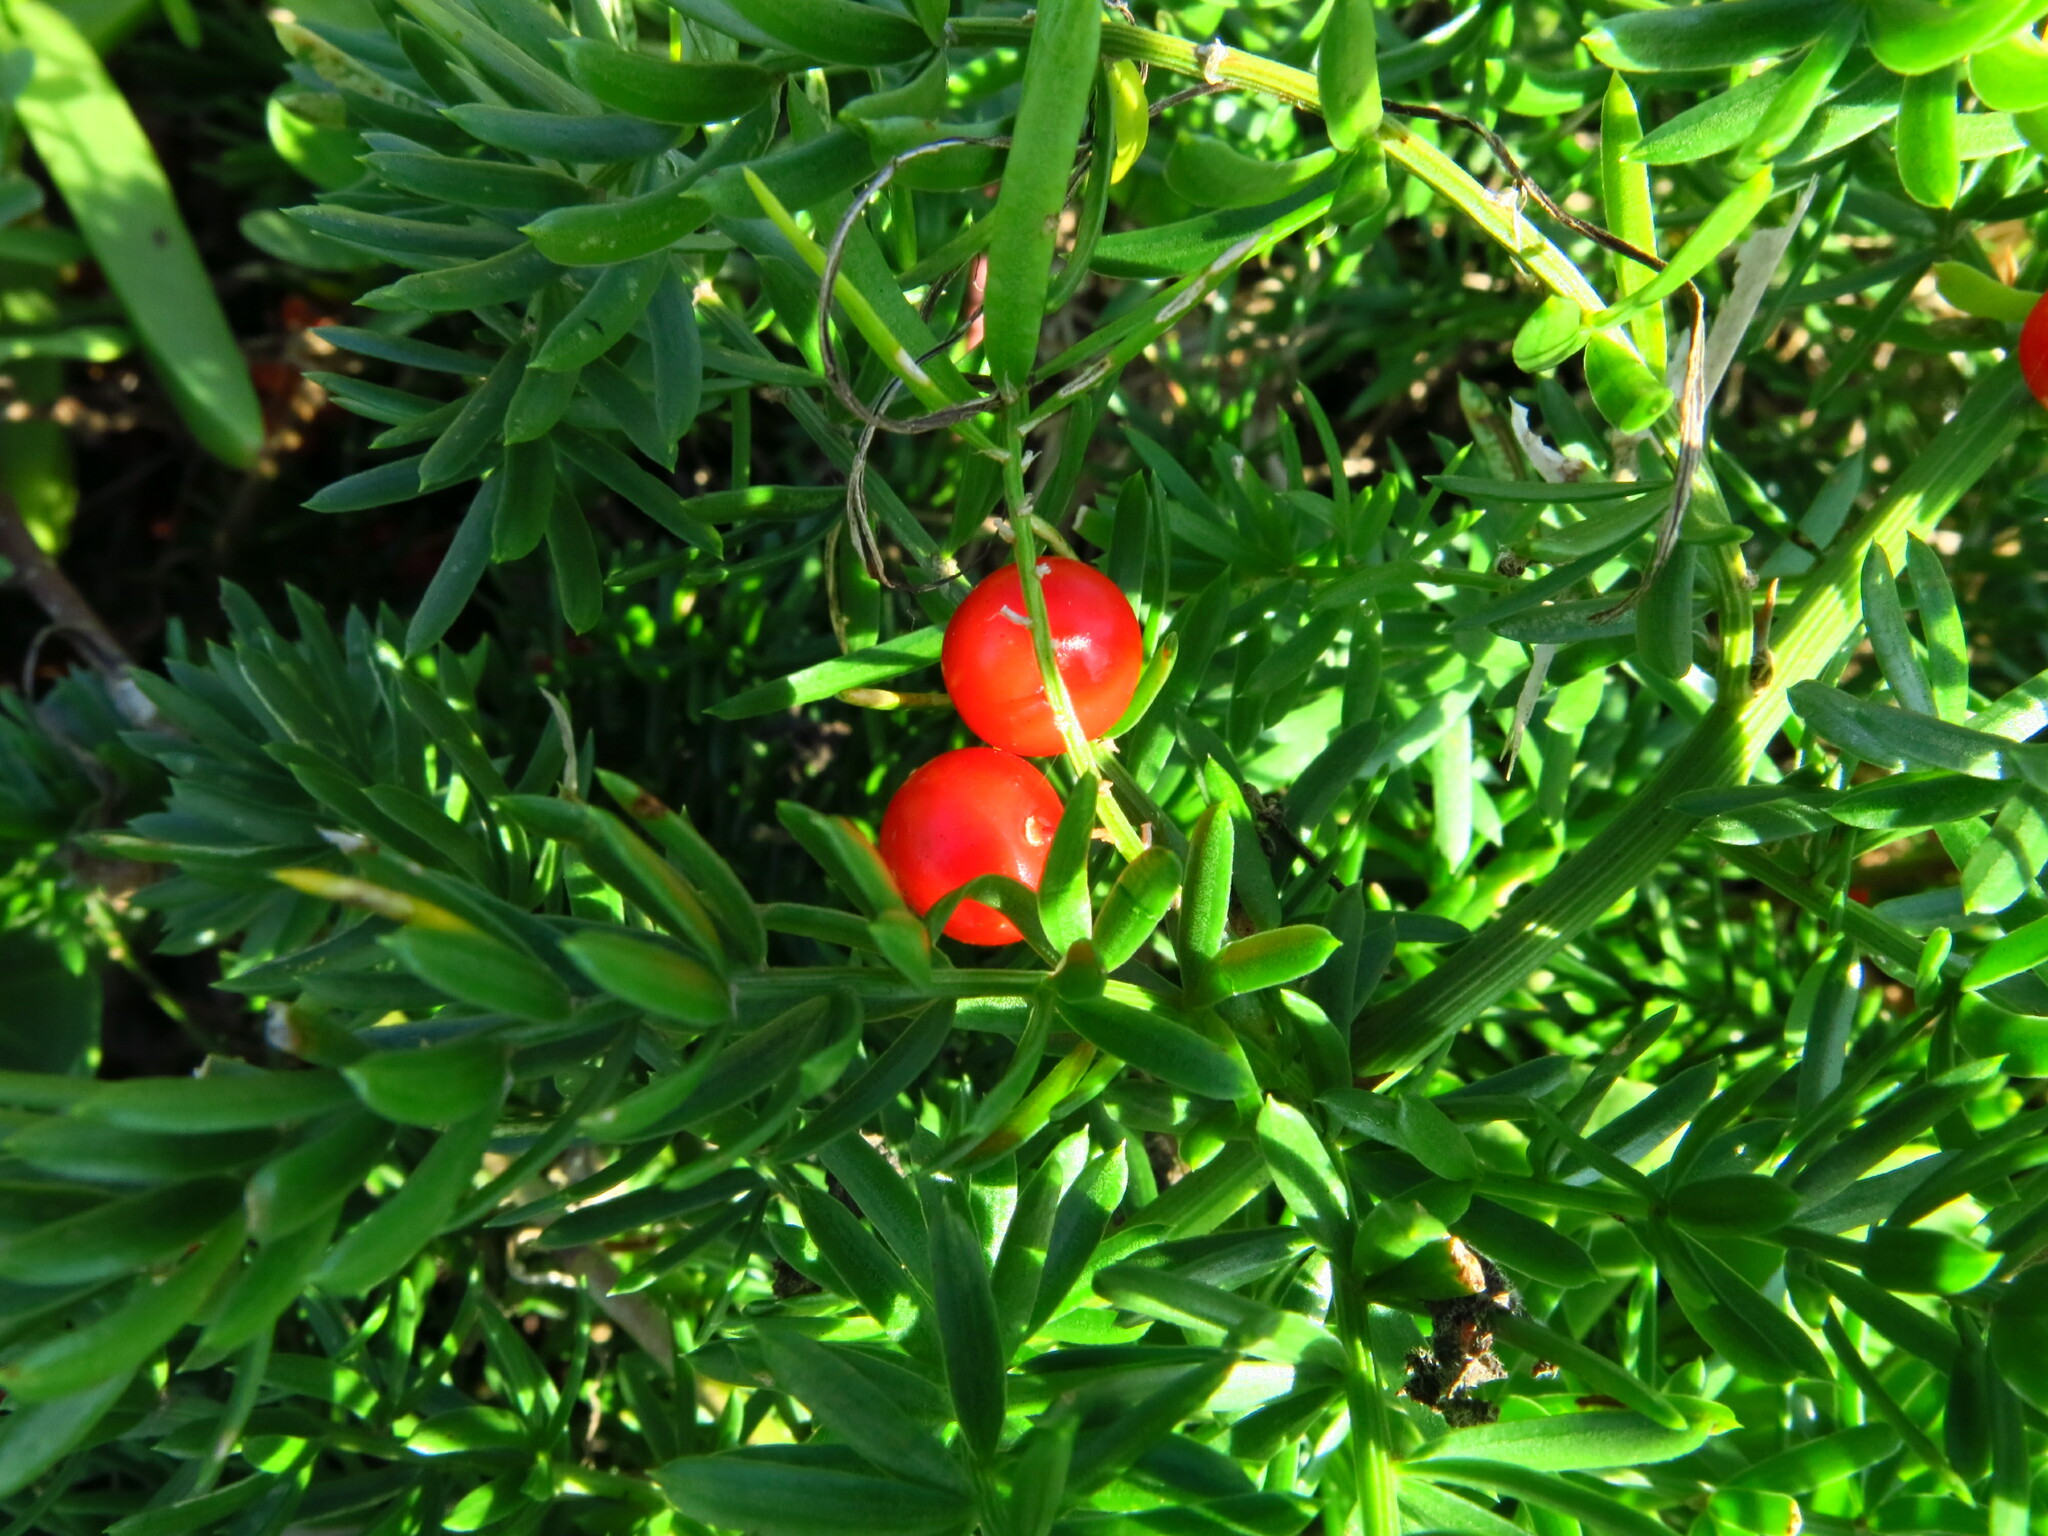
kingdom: Plantae
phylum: Tracheophyta
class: Liliopsida
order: Asparagales
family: Asparagaceae
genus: Asparagus
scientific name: Asparagus densiflorus
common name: Asparagus fern
